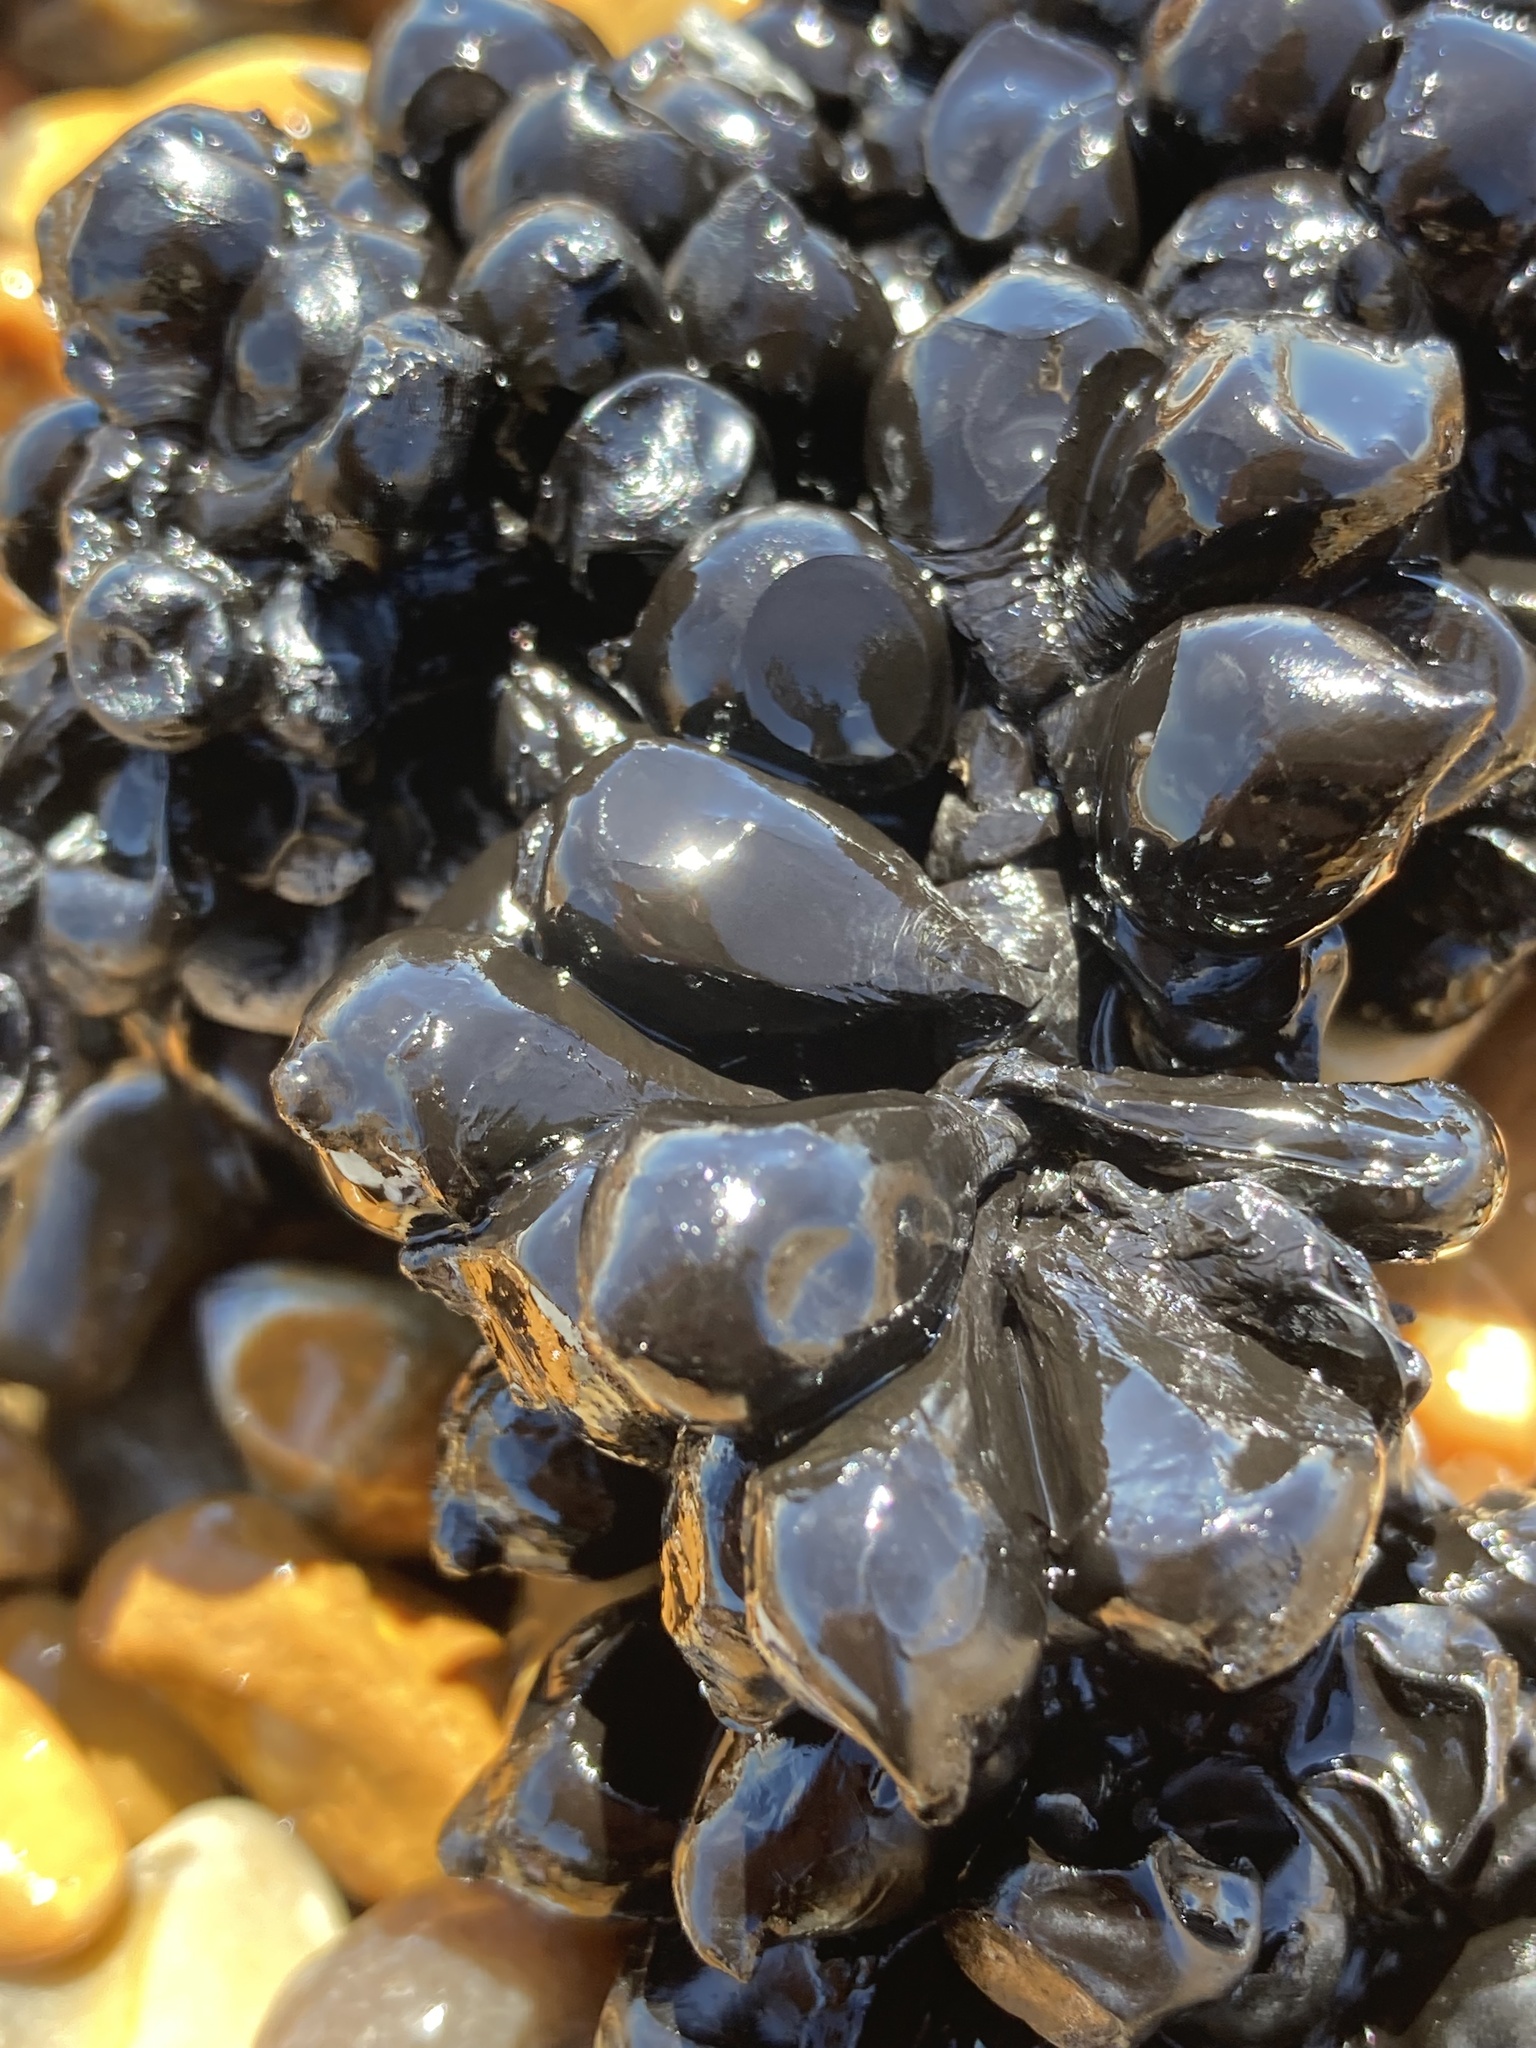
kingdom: Animalia
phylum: Mollusca
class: Cephalopoda
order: Sepiida
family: Sepiidae
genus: Sepia
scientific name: Sepia officinalis
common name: Common cuttlefish
